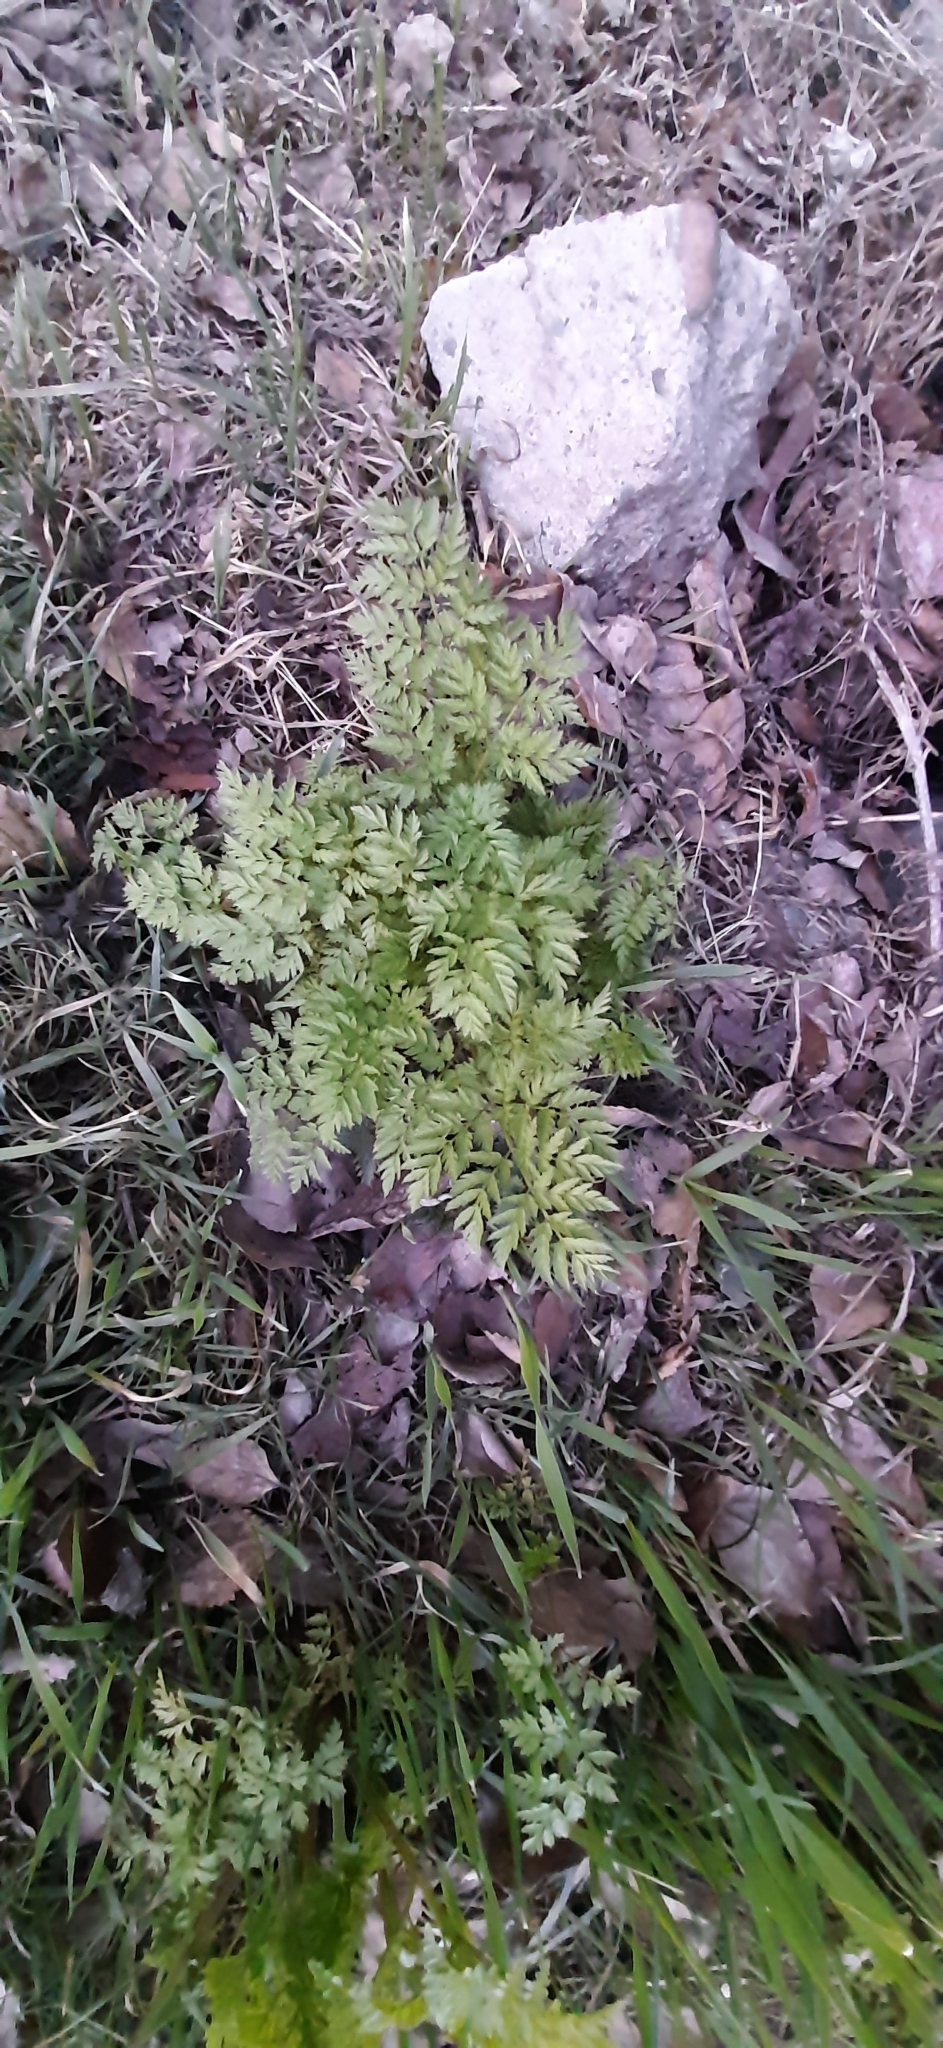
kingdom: Plantae
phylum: Tracheophyta
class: Magnoliopsida
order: Apiales
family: Apiaceae
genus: Anthriscus
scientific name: Anthriscus sylvestris
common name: Cow parsley
